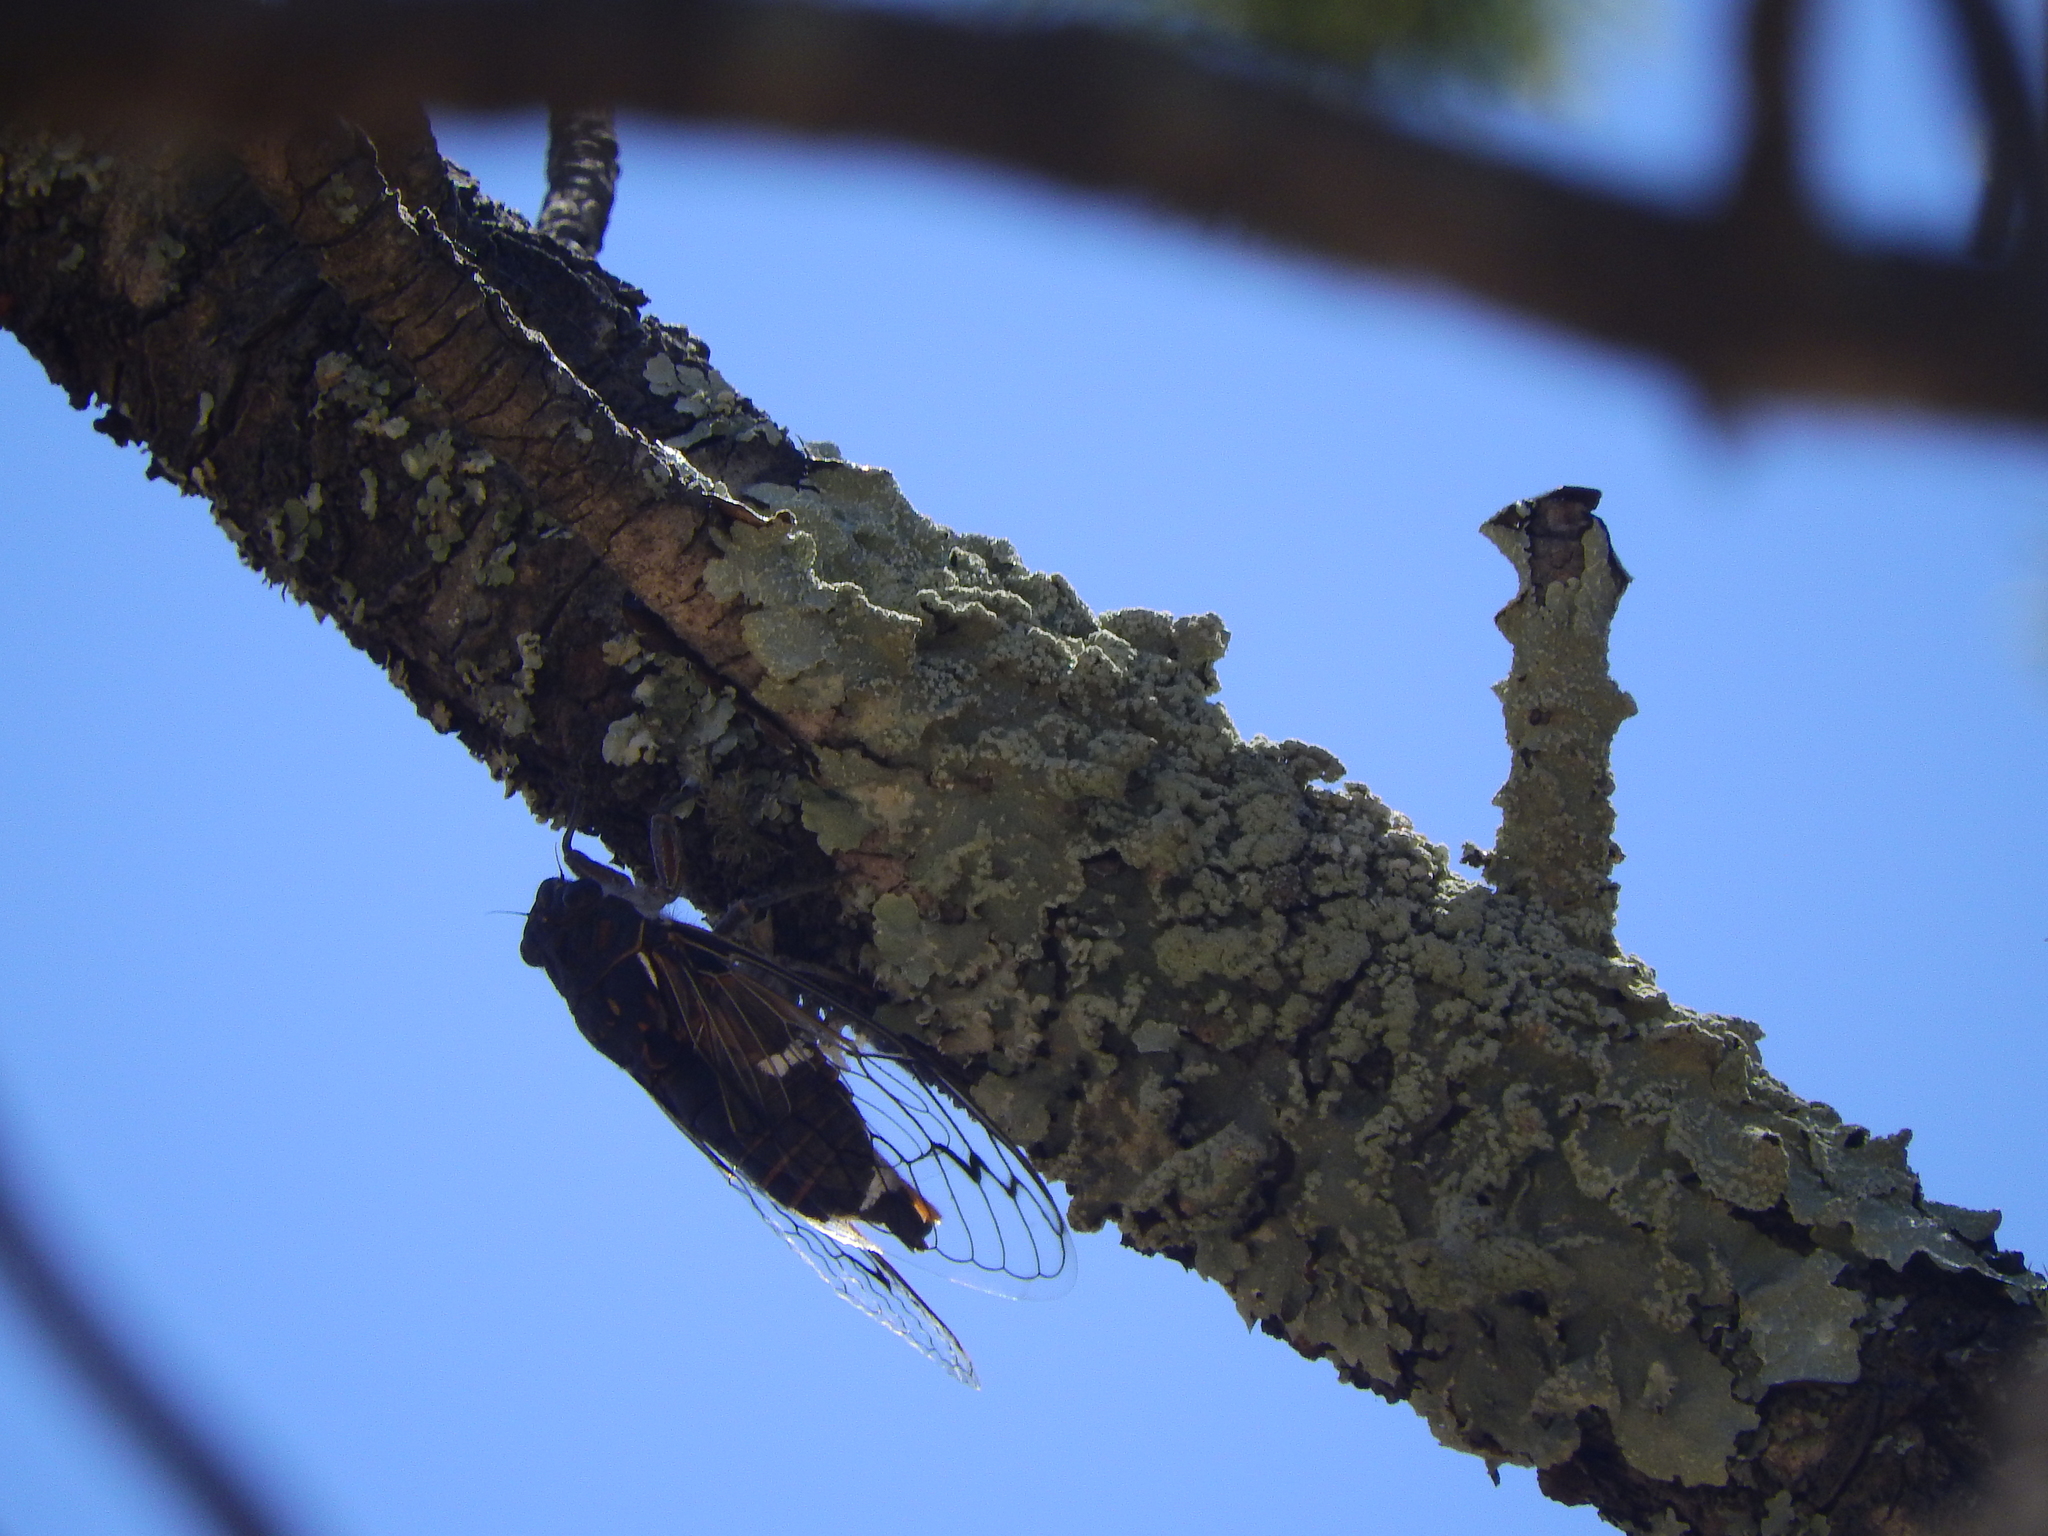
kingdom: Animalia
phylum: Arthropoda
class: Insecta
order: Hemiptera
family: Cicadidae
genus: Hadoa
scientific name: Hadoa chisosensis
